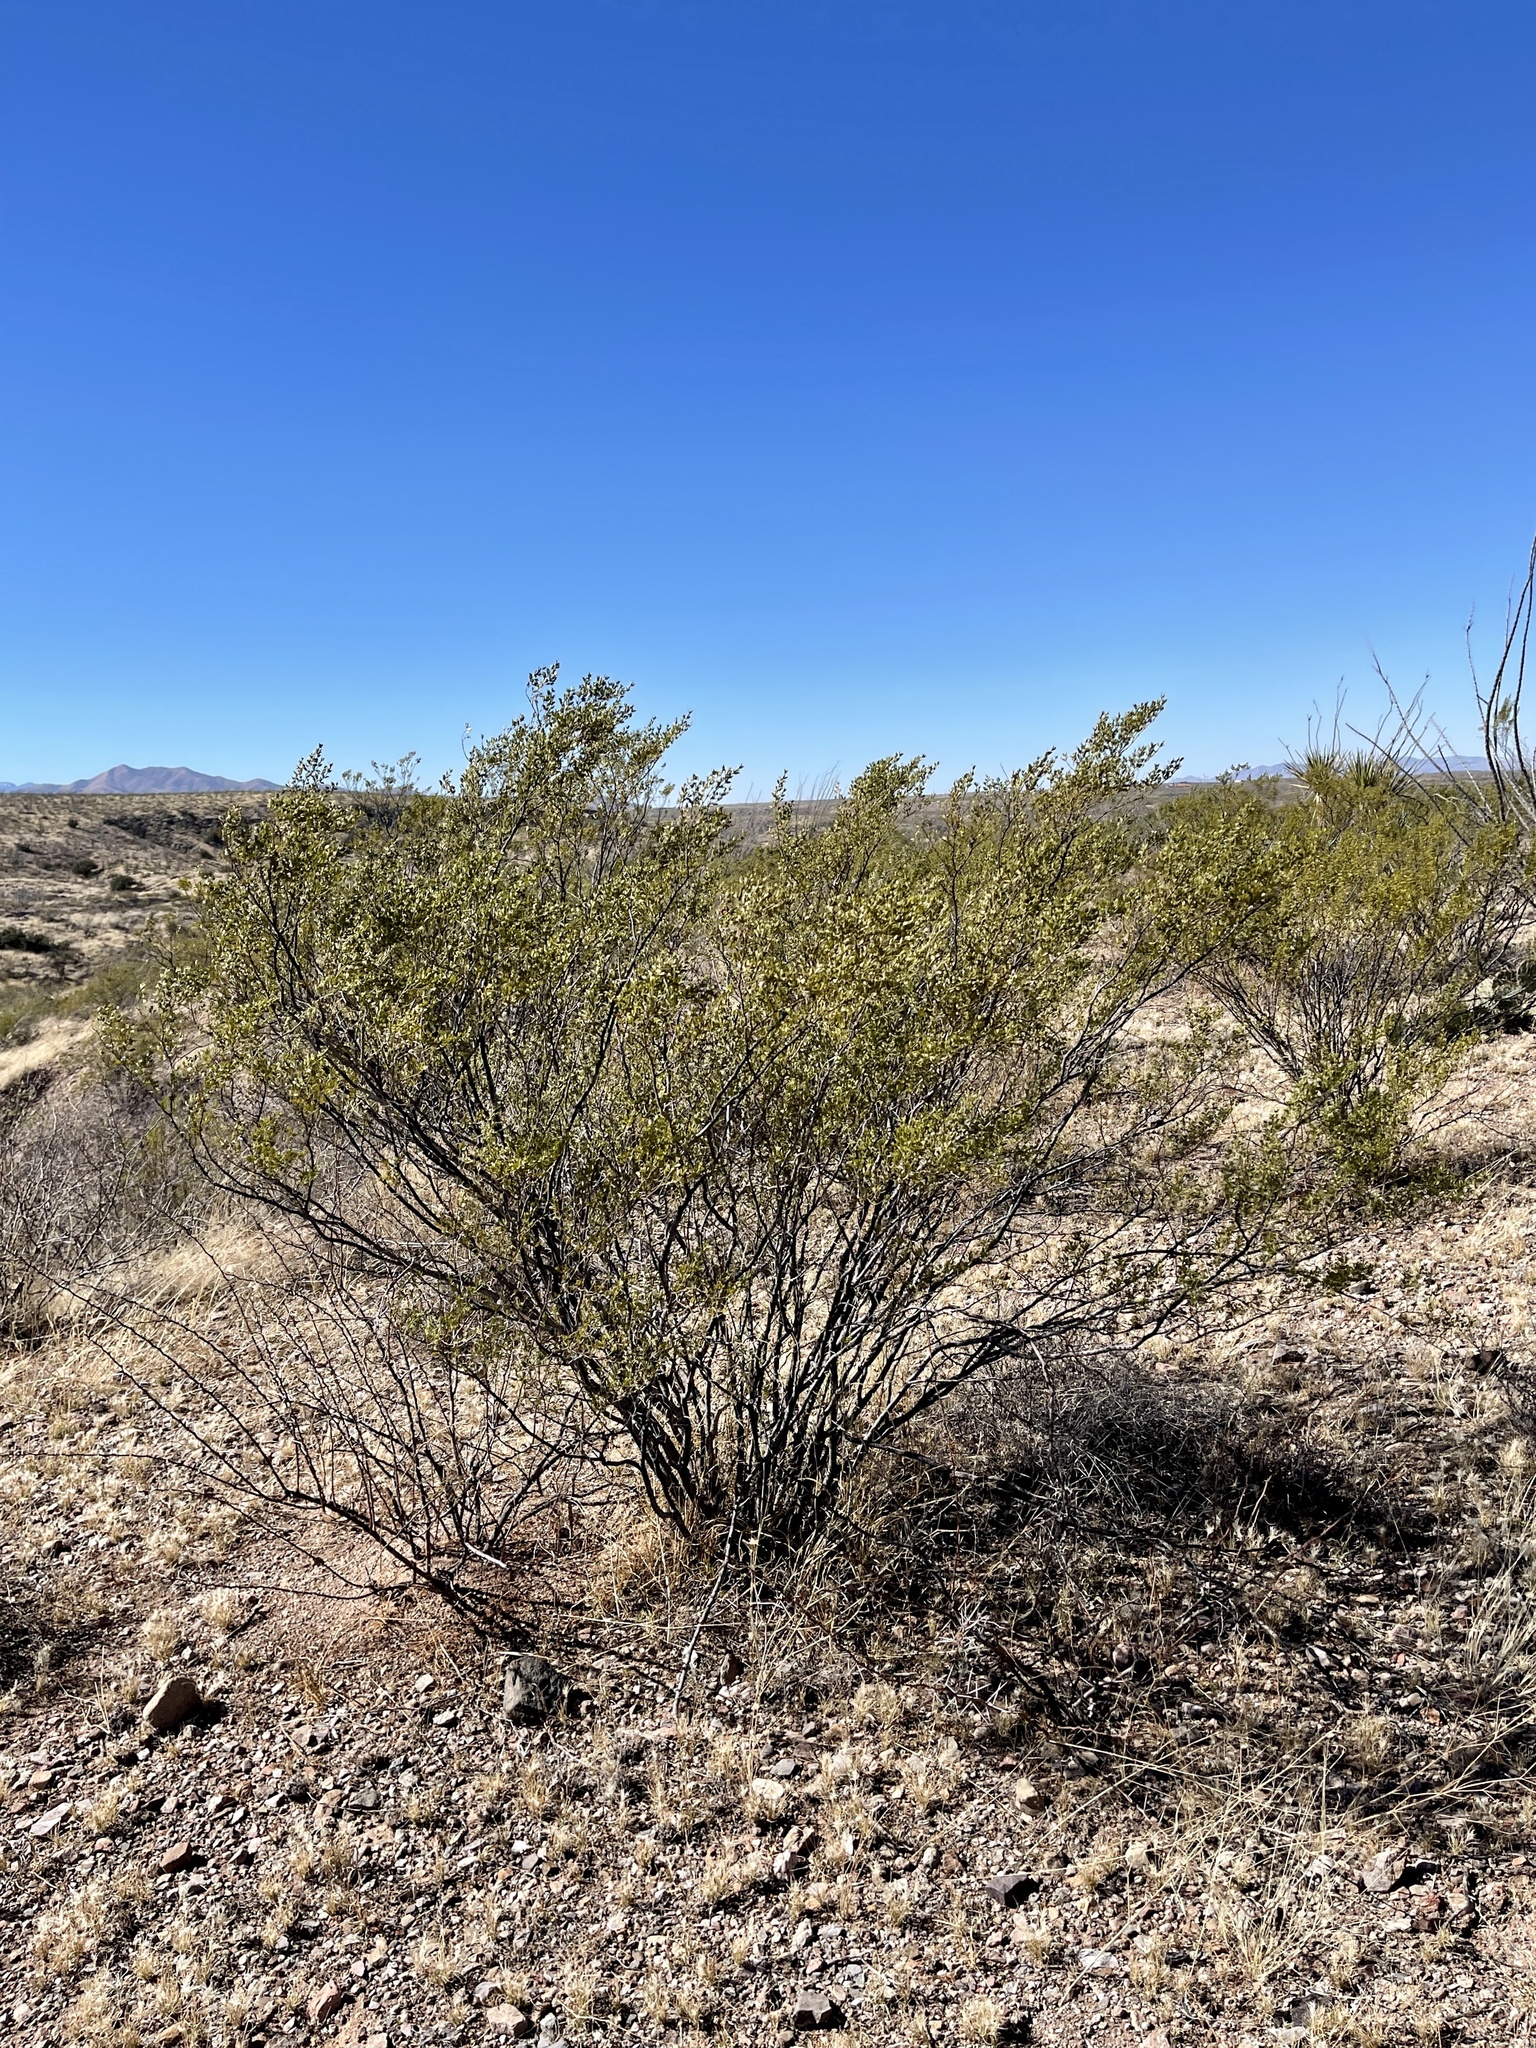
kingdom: Plantae
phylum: Tracheophyta
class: Magnoliopsida
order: Zygophyllales
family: Zygophyllaceae
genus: Larrea
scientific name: Larrea tridentata
